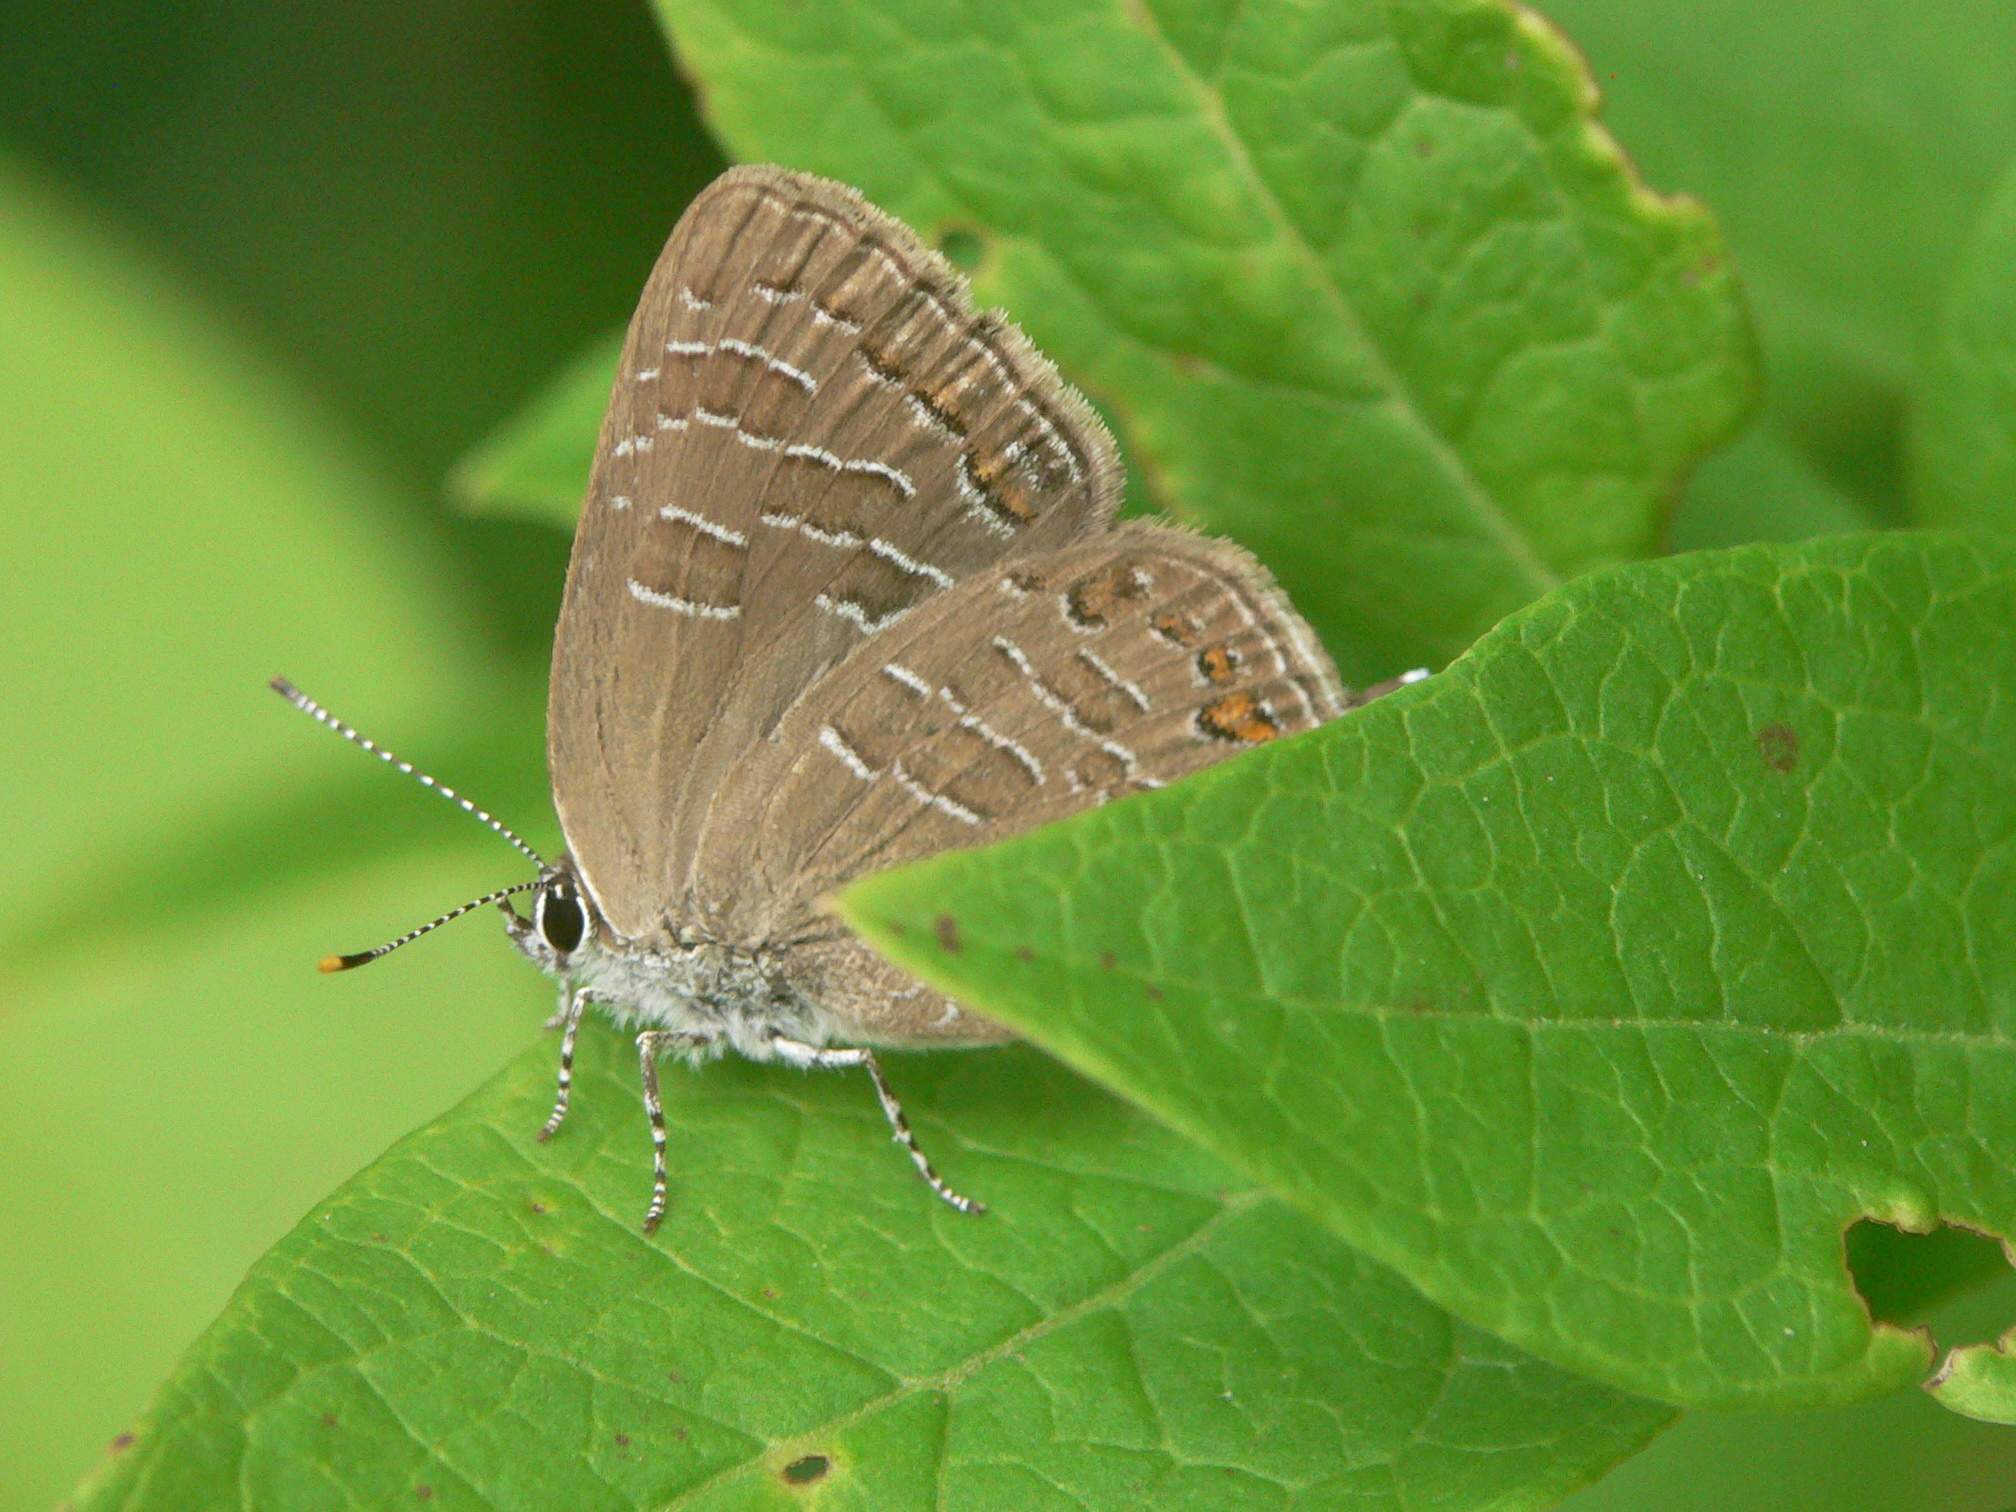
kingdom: Animalia
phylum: Arthropoda
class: Insecta
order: Lepidoptera
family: Lycaenidae
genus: Satyrium
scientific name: Satyrium liparops
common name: Striped hairstreak
